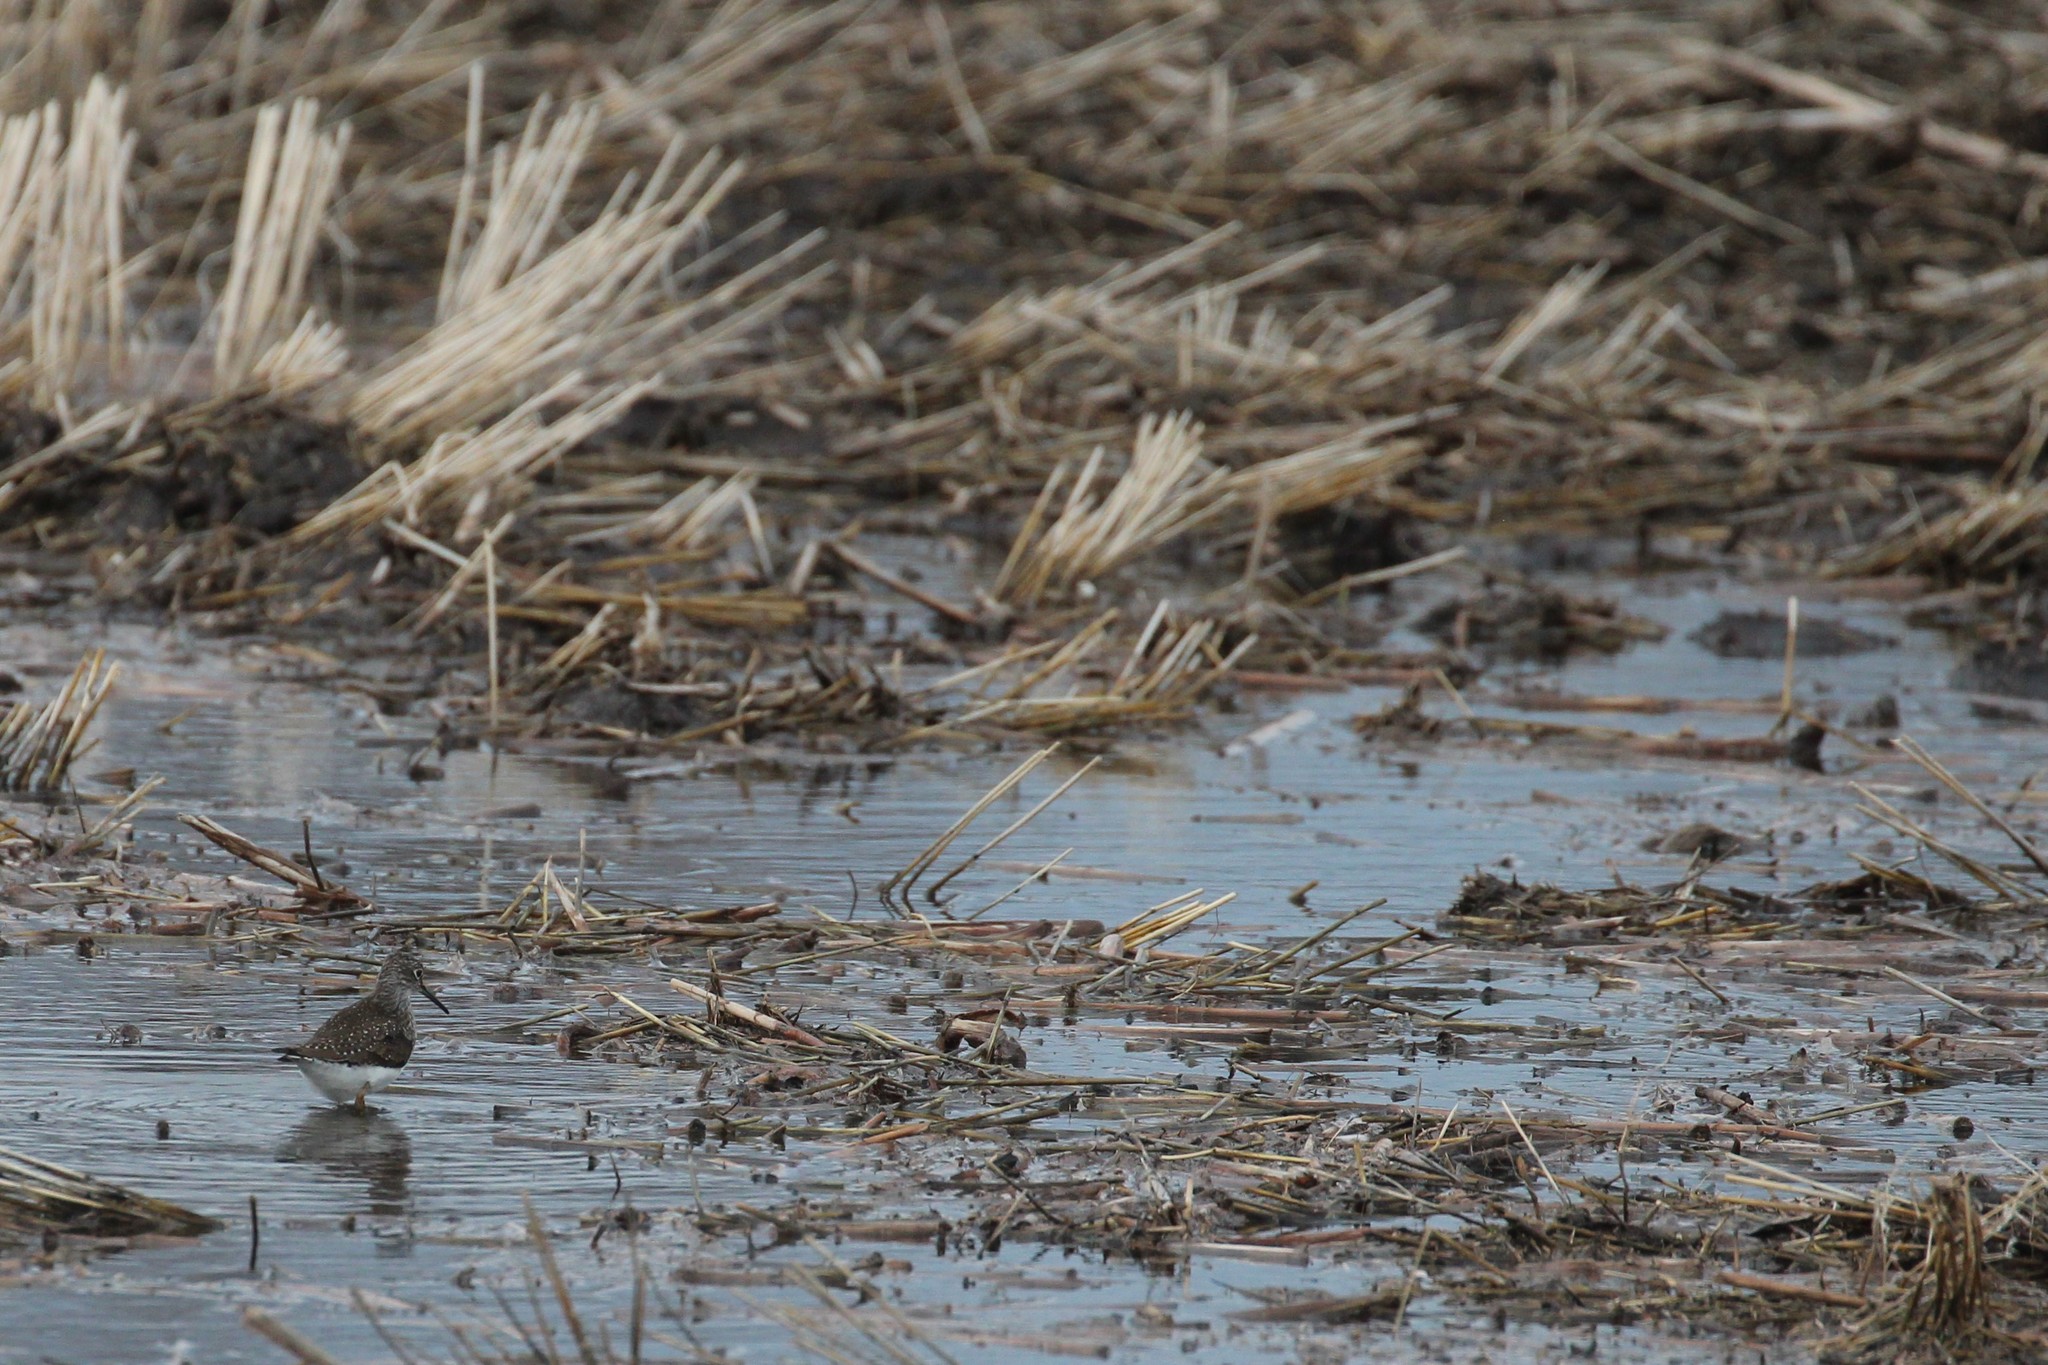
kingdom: Animalia
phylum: Chordata
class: Aves
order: Charadriiformes
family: Scolopacidae
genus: Tringa
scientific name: Tringa solitaria
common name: Solitary sandpiper
